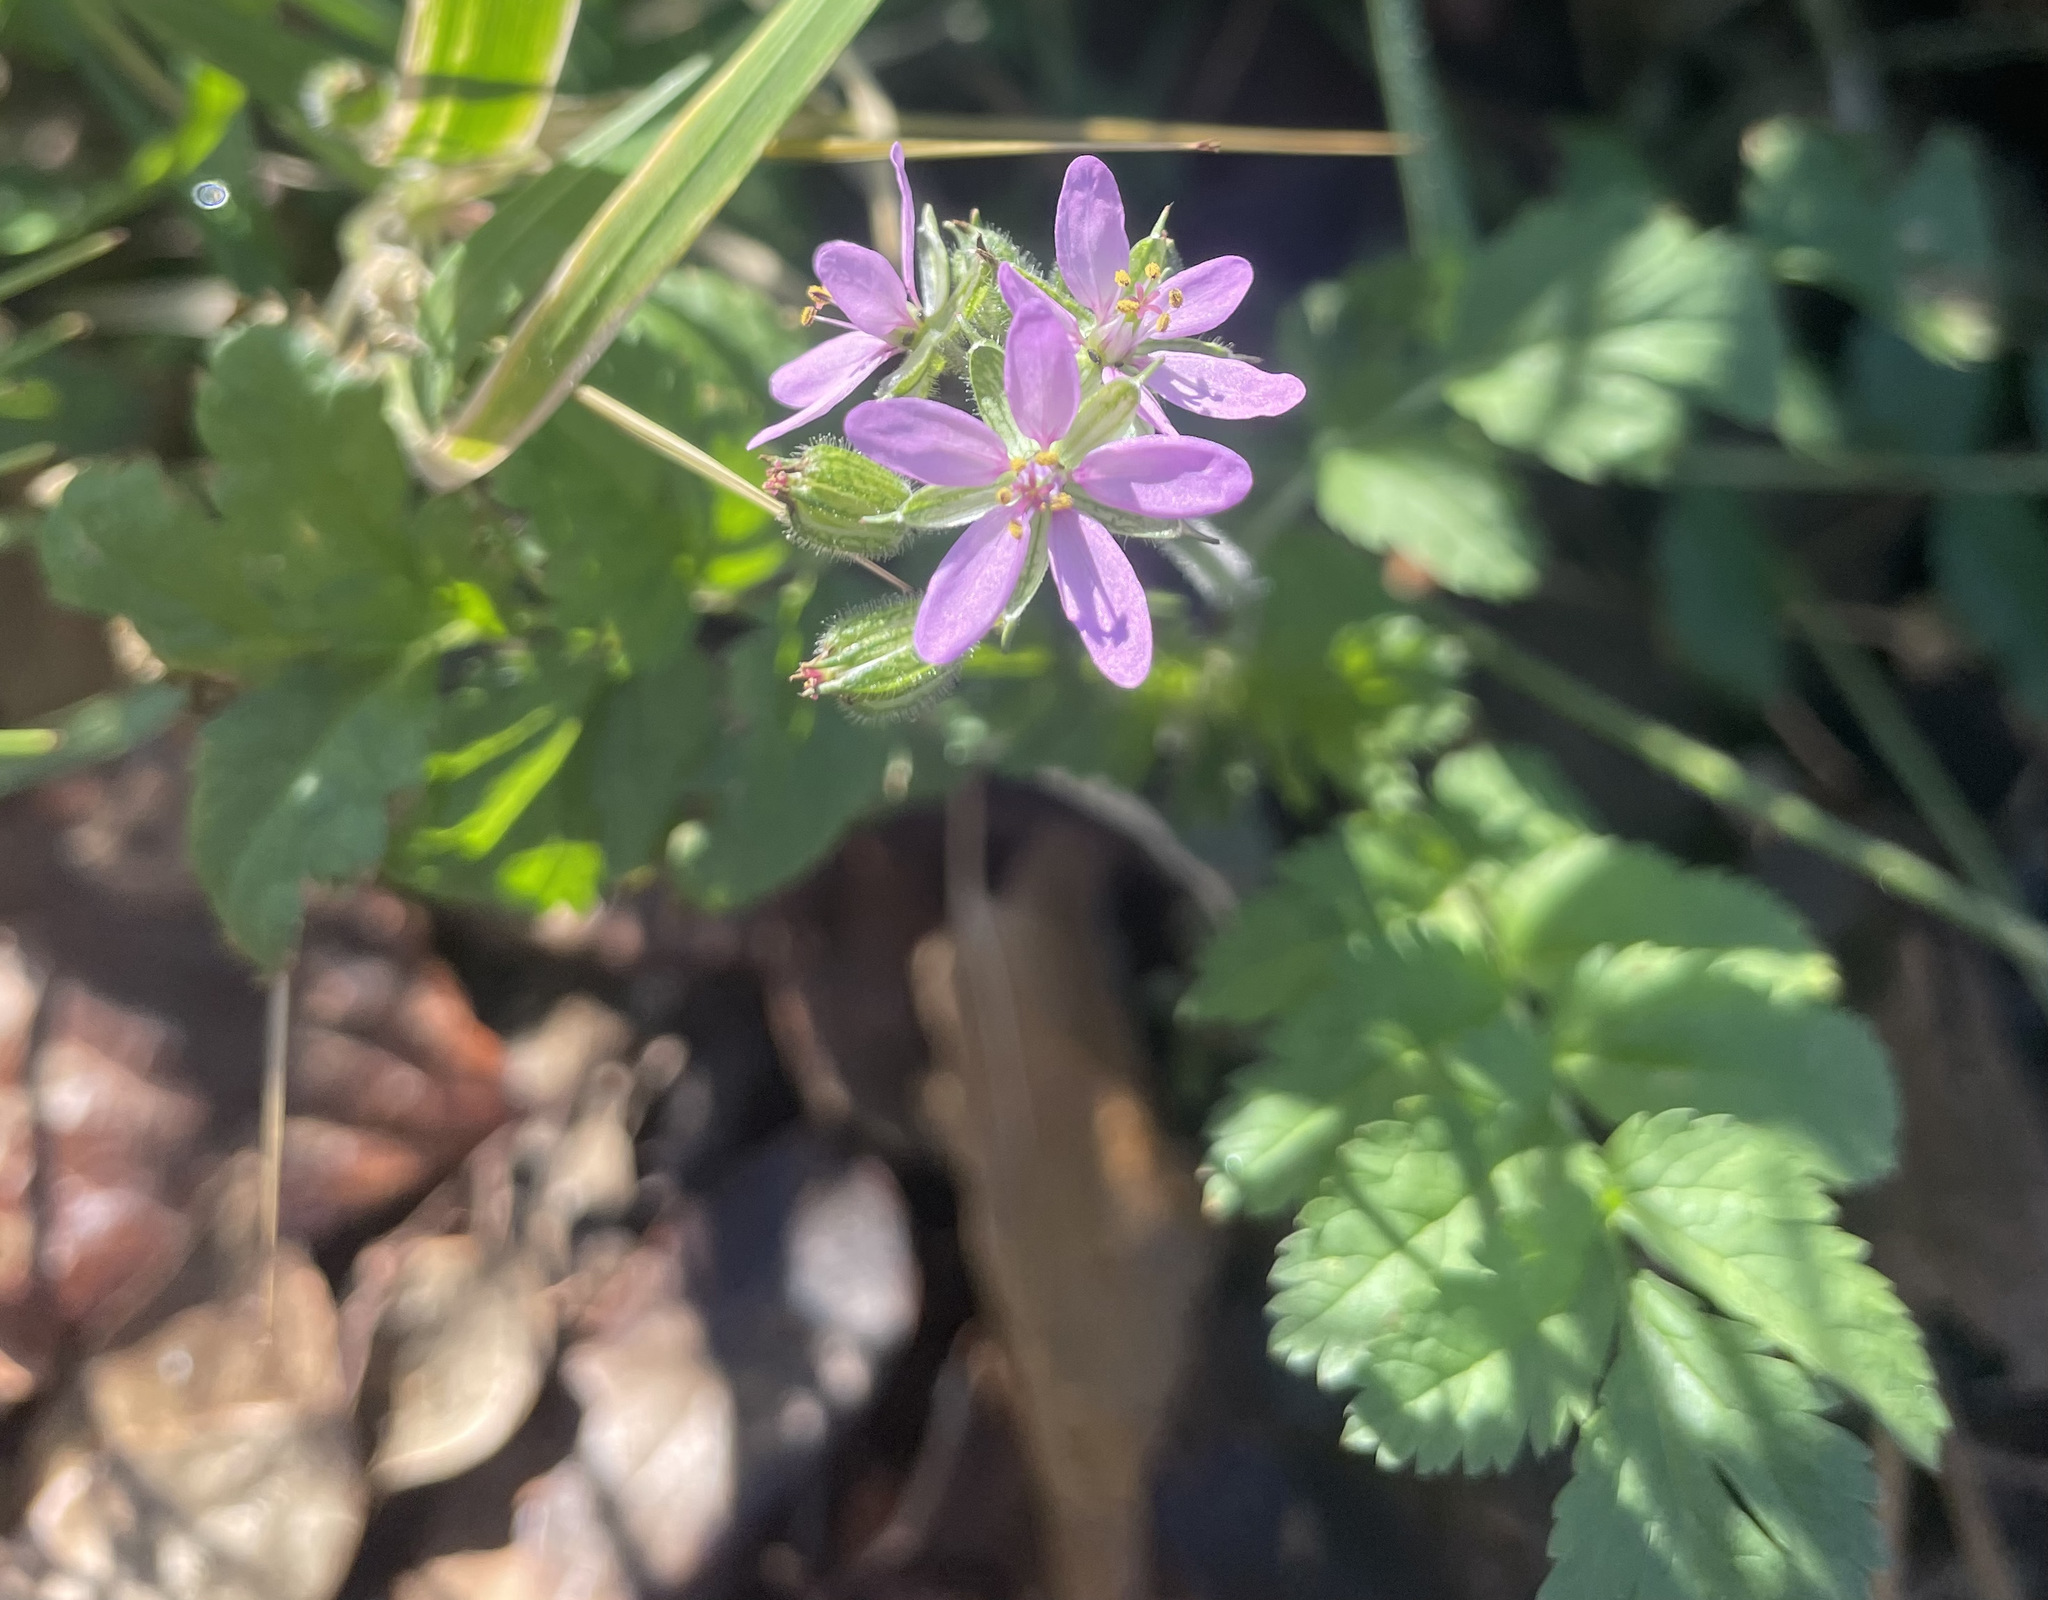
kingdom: Plantae
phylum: Tracheophyta
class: Magnoliopsida
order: Geraniales
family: Geraniaceae
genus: Erodium
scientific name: Erodium moschatum
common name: Musk stork's-bill
